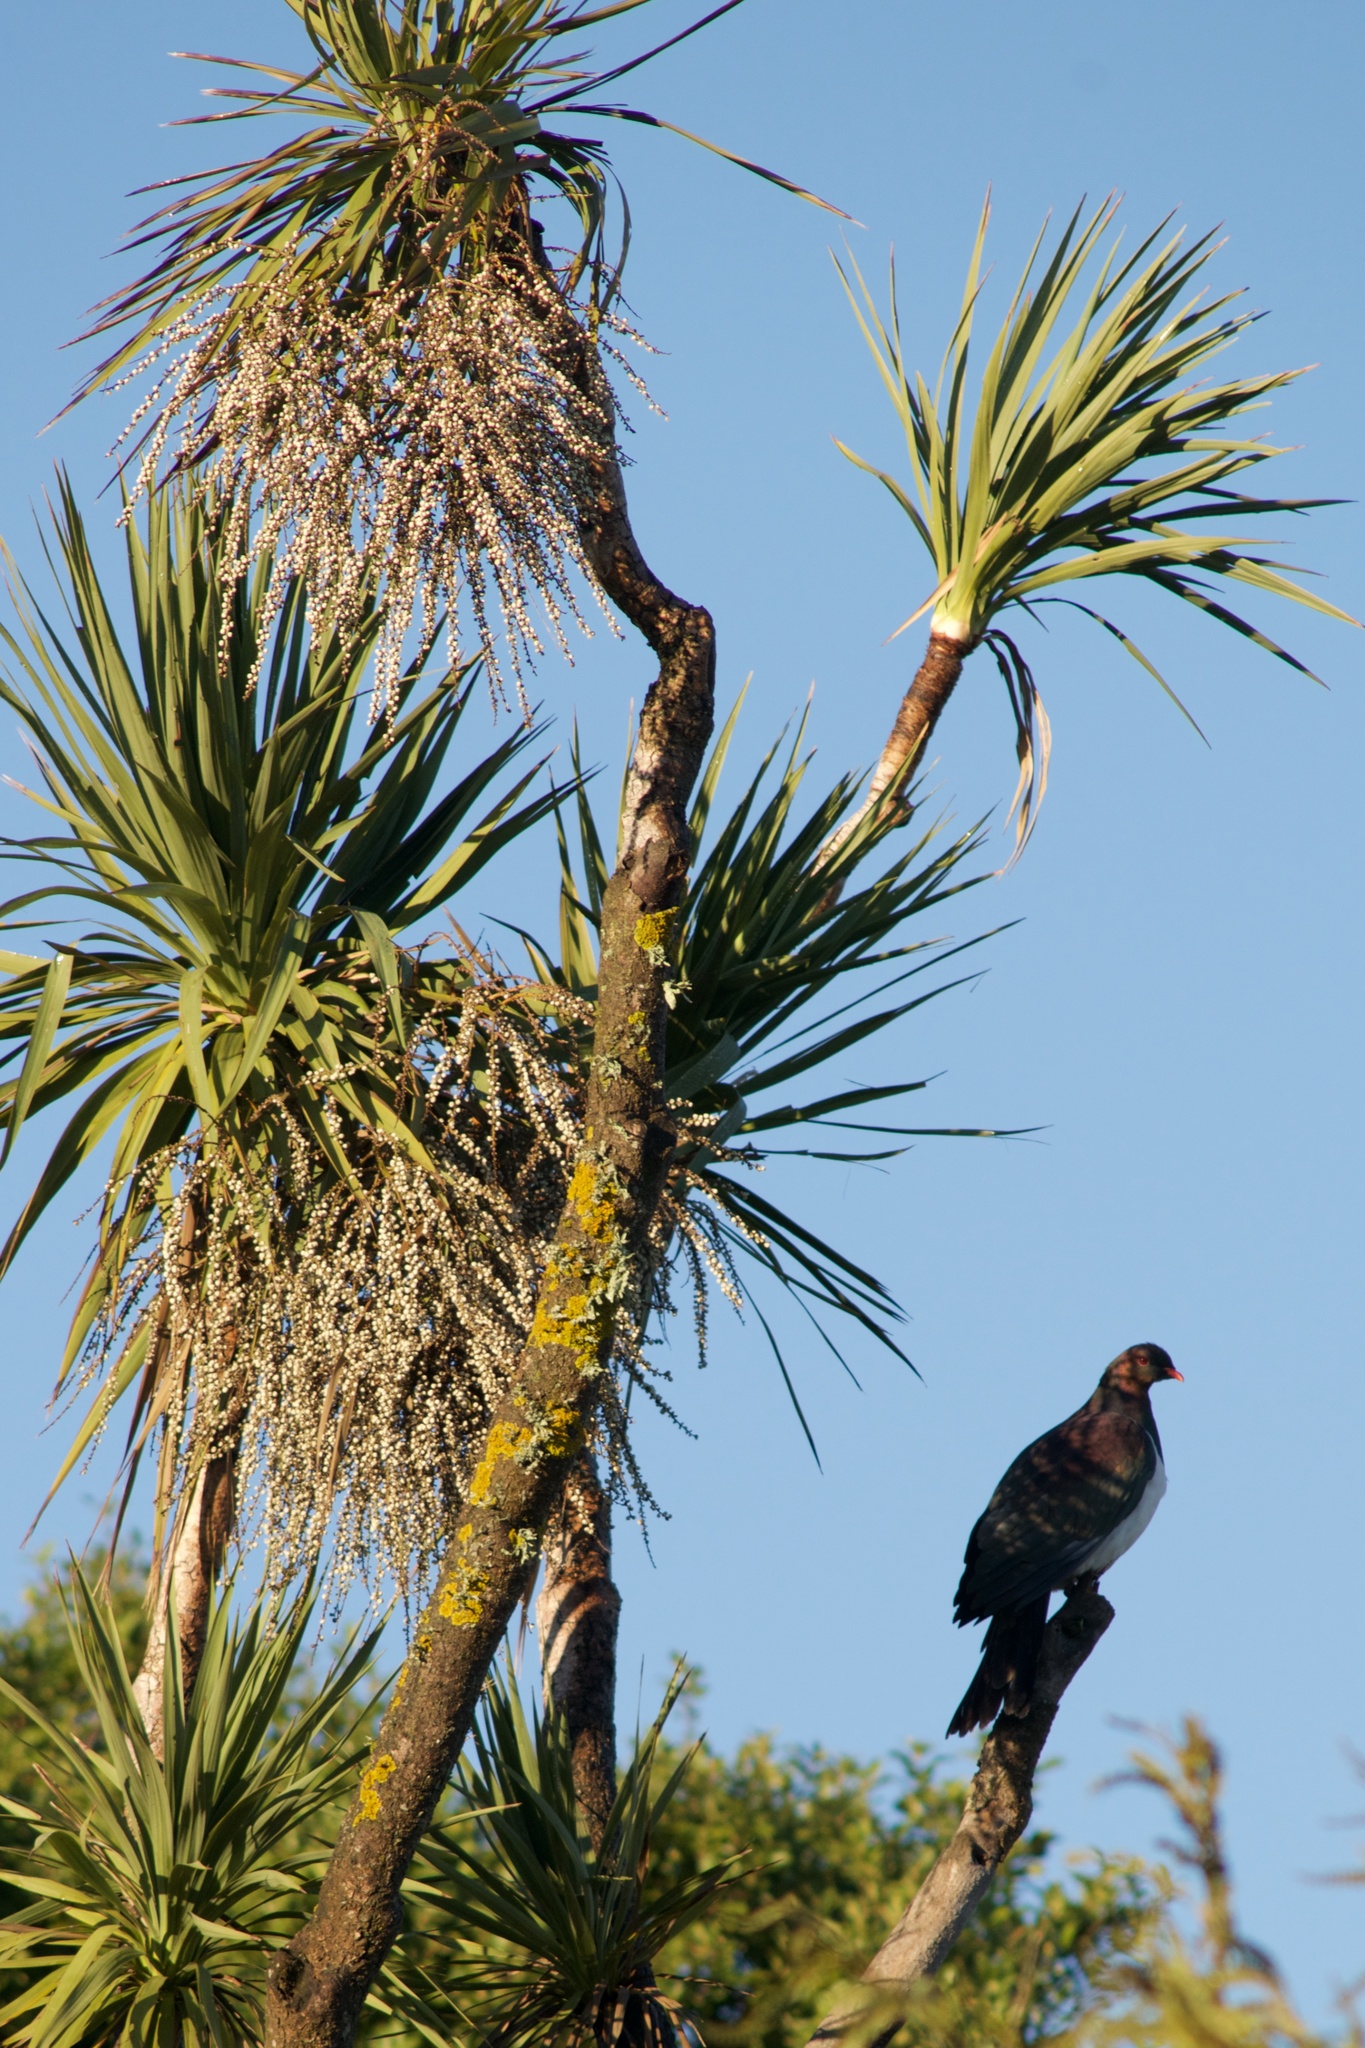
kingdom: Animalia
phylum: Chordata
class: Aves
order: Columbiformes
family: Columbidae
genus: Hemiphaga
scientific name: Hemiphaga novaeseelandiae
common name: New zealand pigeon
